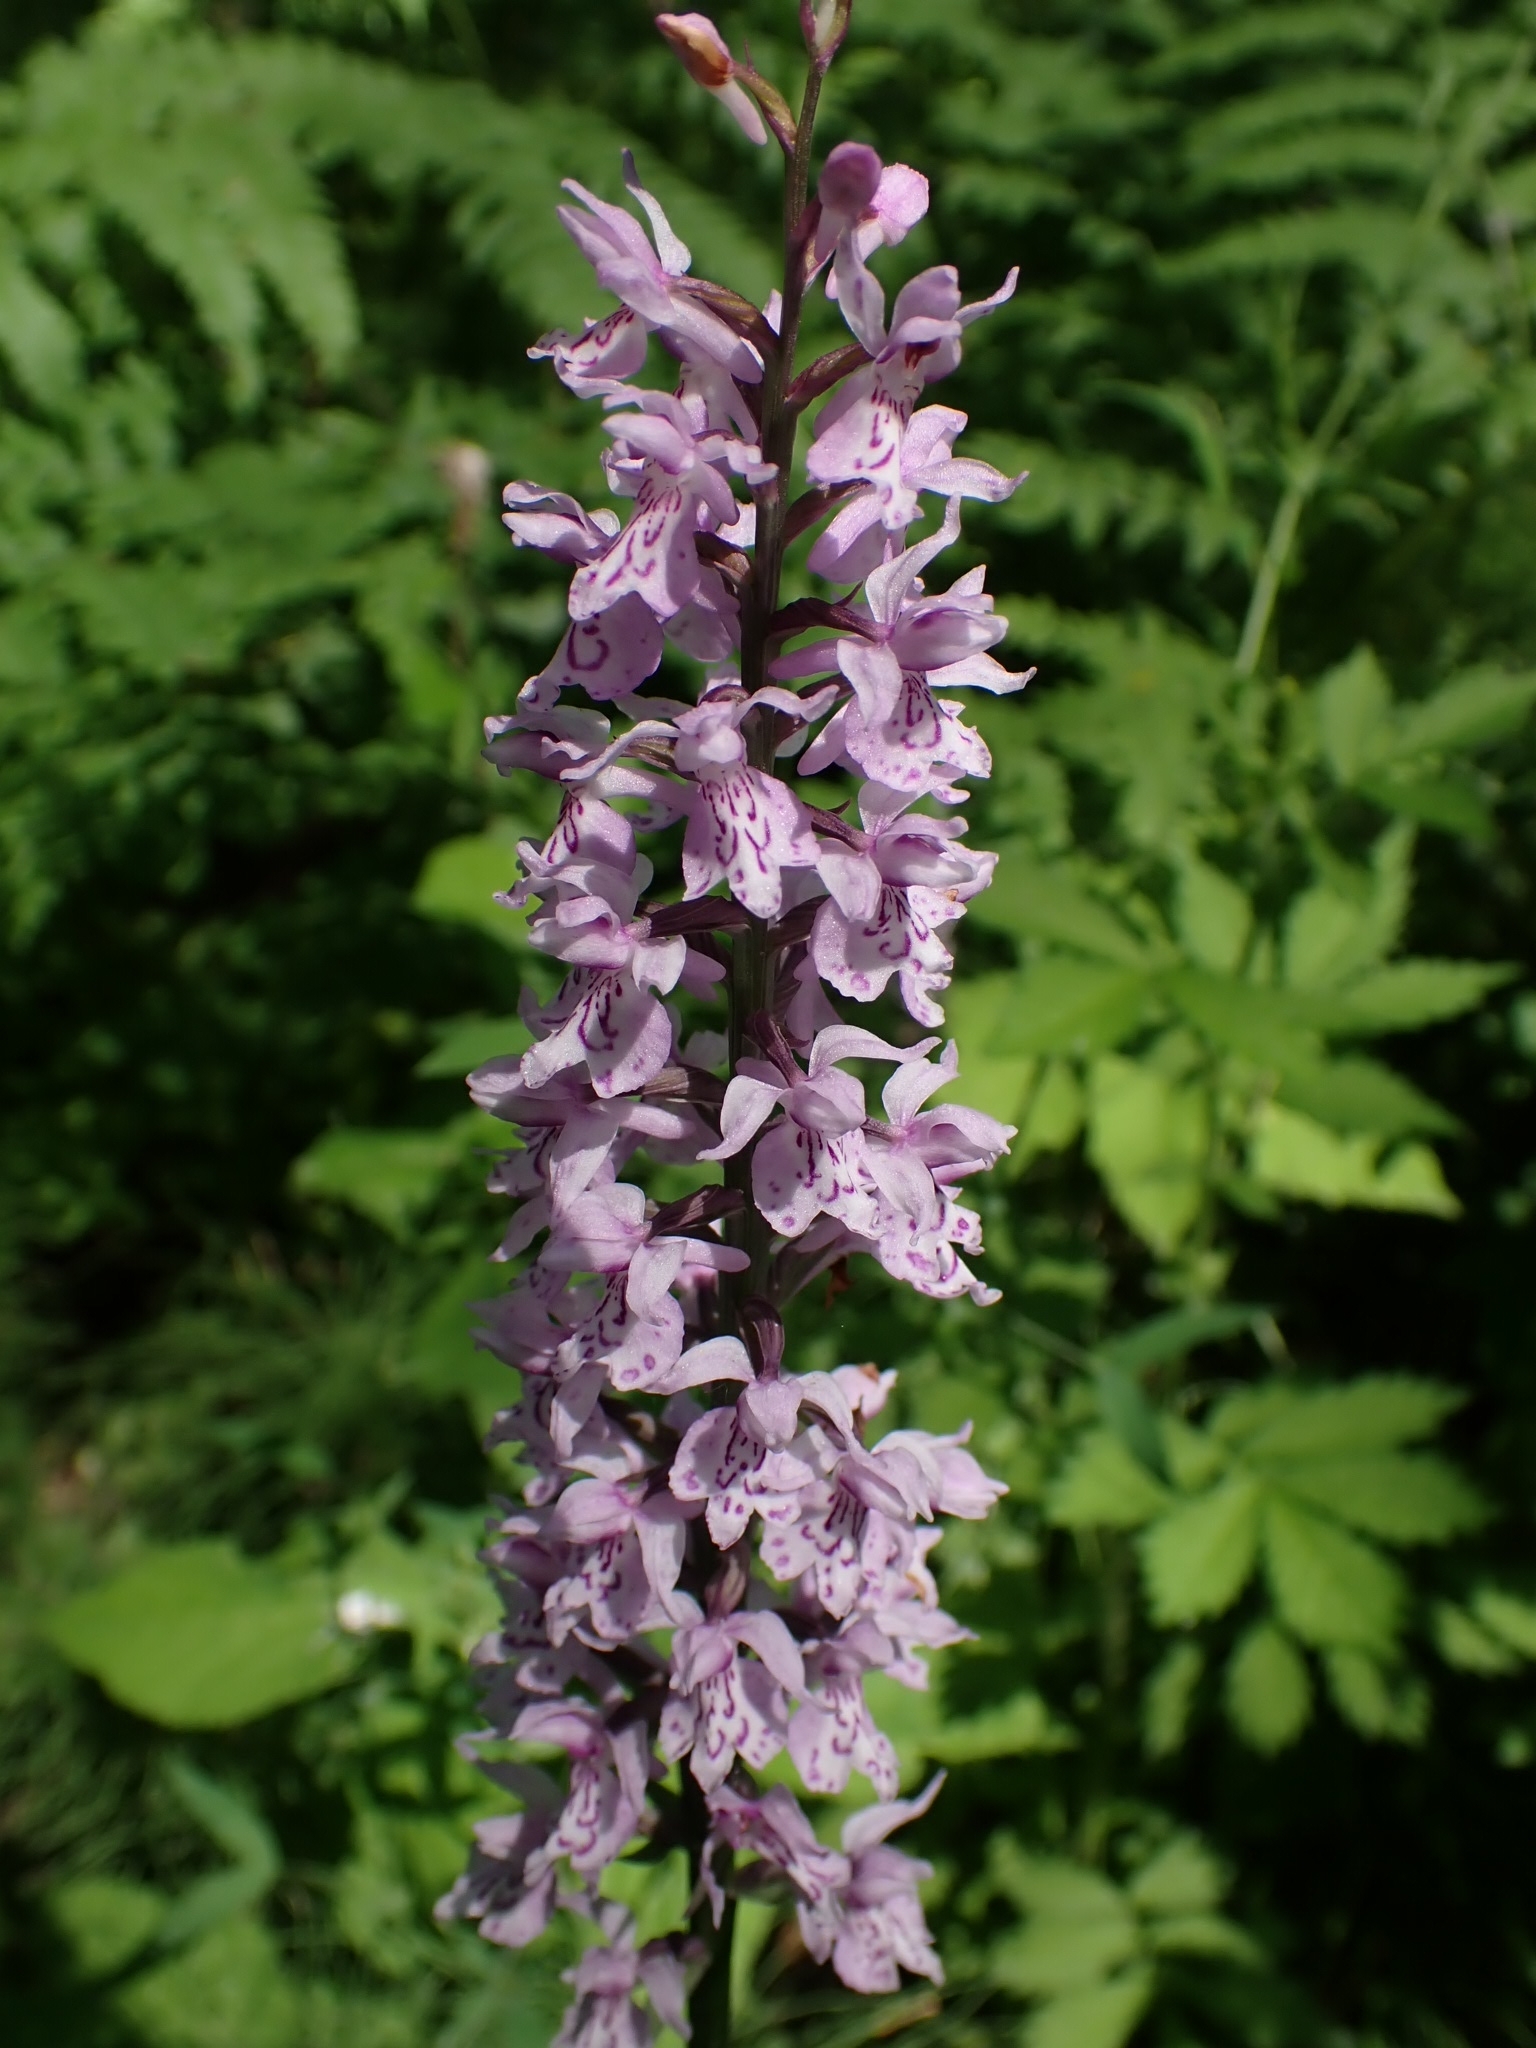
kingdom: Plantae
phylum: Tracheophyta
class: Liliopsida
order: Asparagales
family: Orchidaceae
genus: Dactylorhiza
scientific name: Dactylorhiza maculata
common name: Heath spotted-orchid
